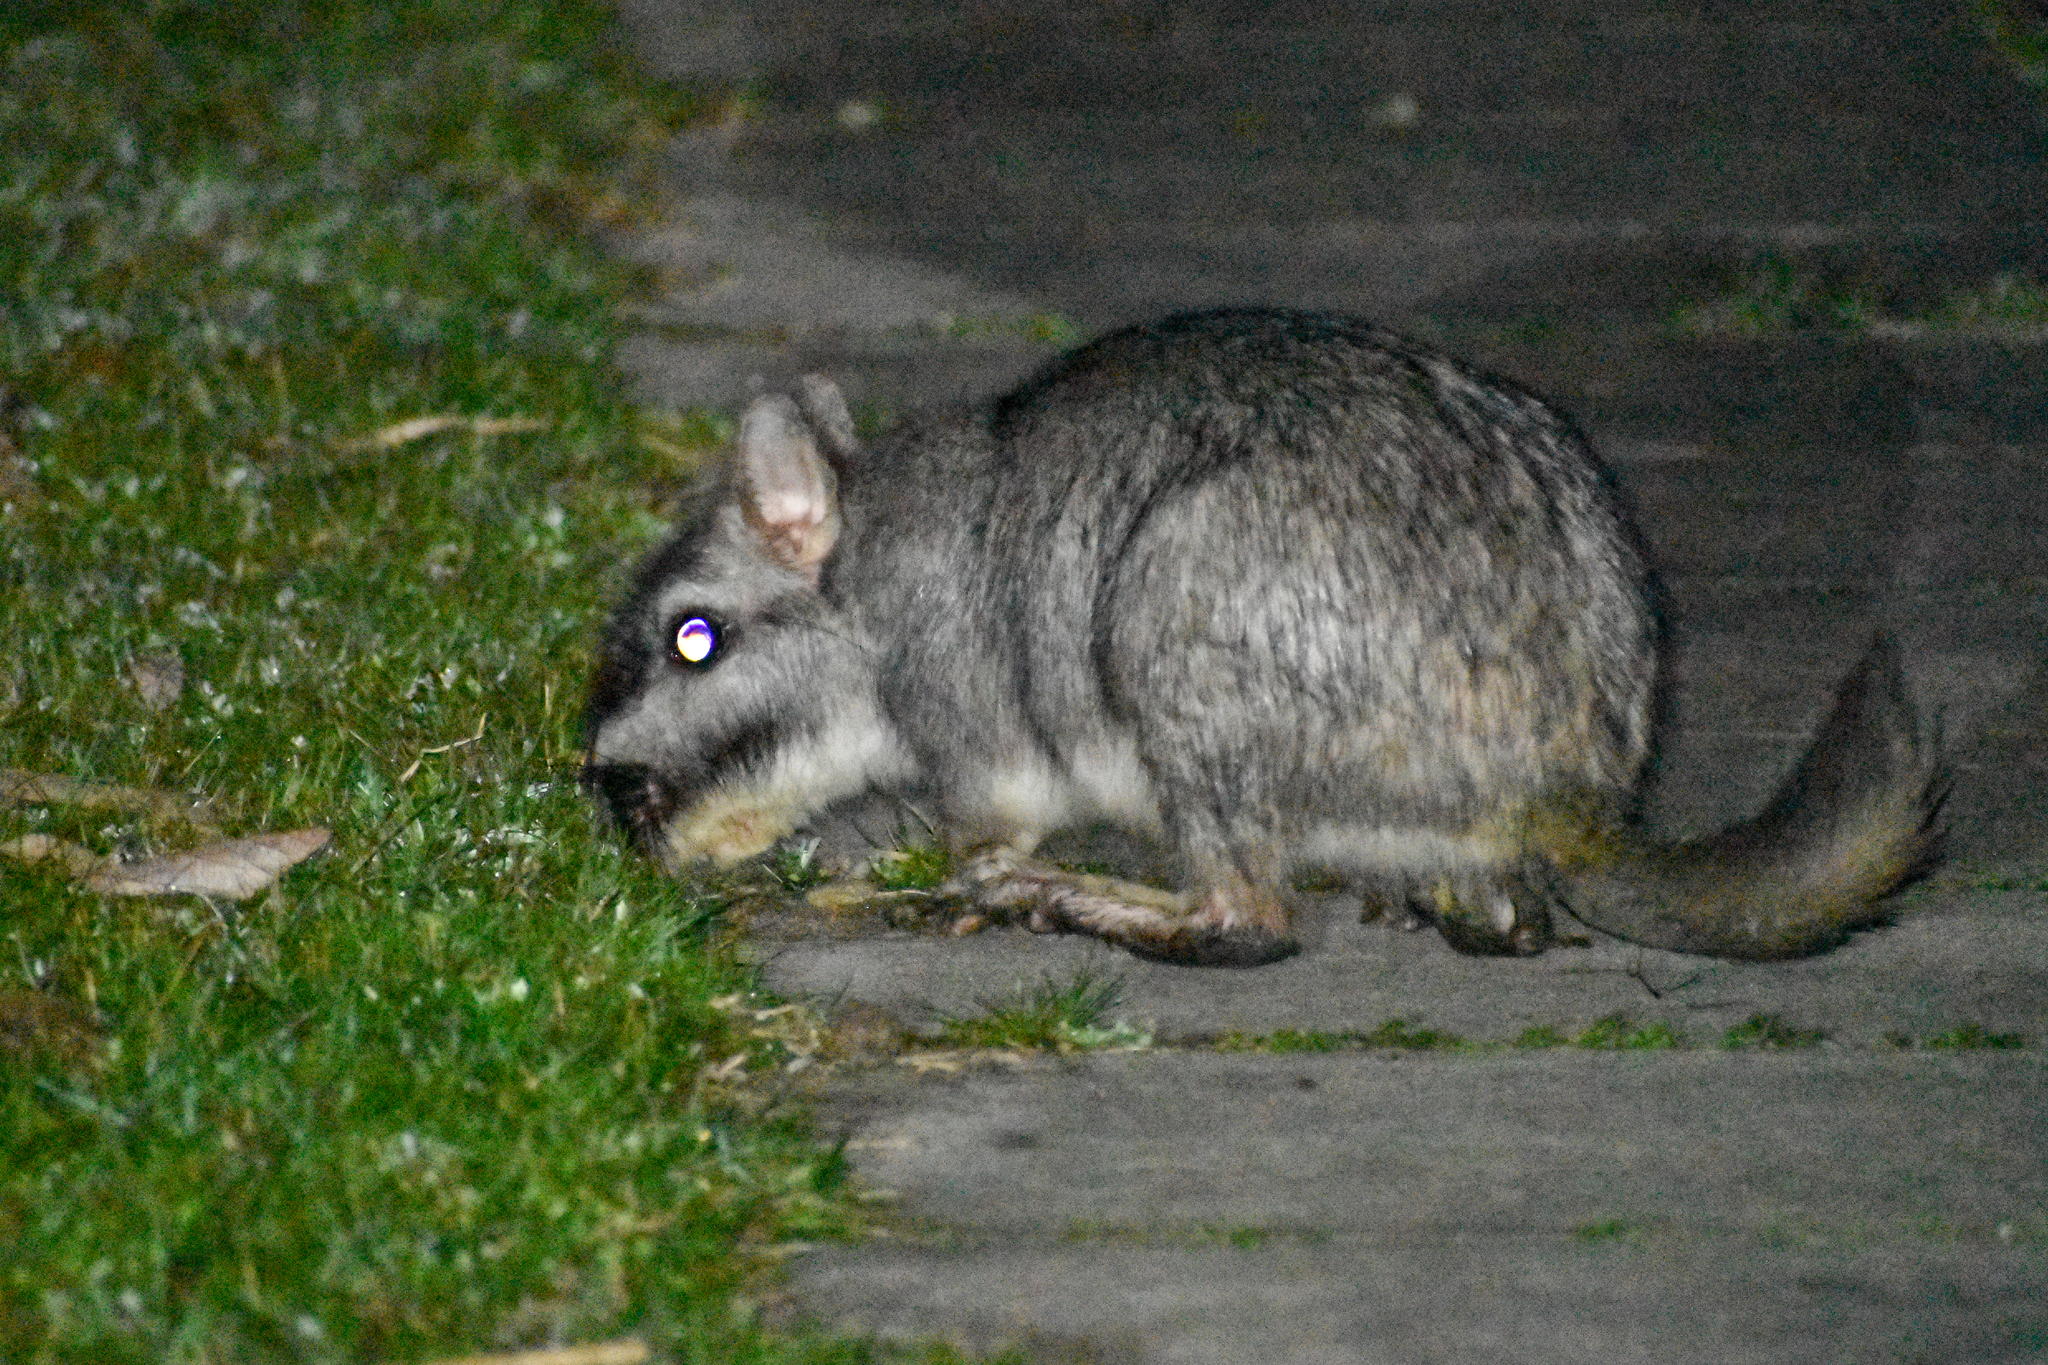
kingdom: Animalia
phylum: Chordata
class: Mammalia
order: Rodentia
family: Chinchillidae
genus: Lagostomus
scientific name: Lagostomus maximus
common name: Plains viscacha
